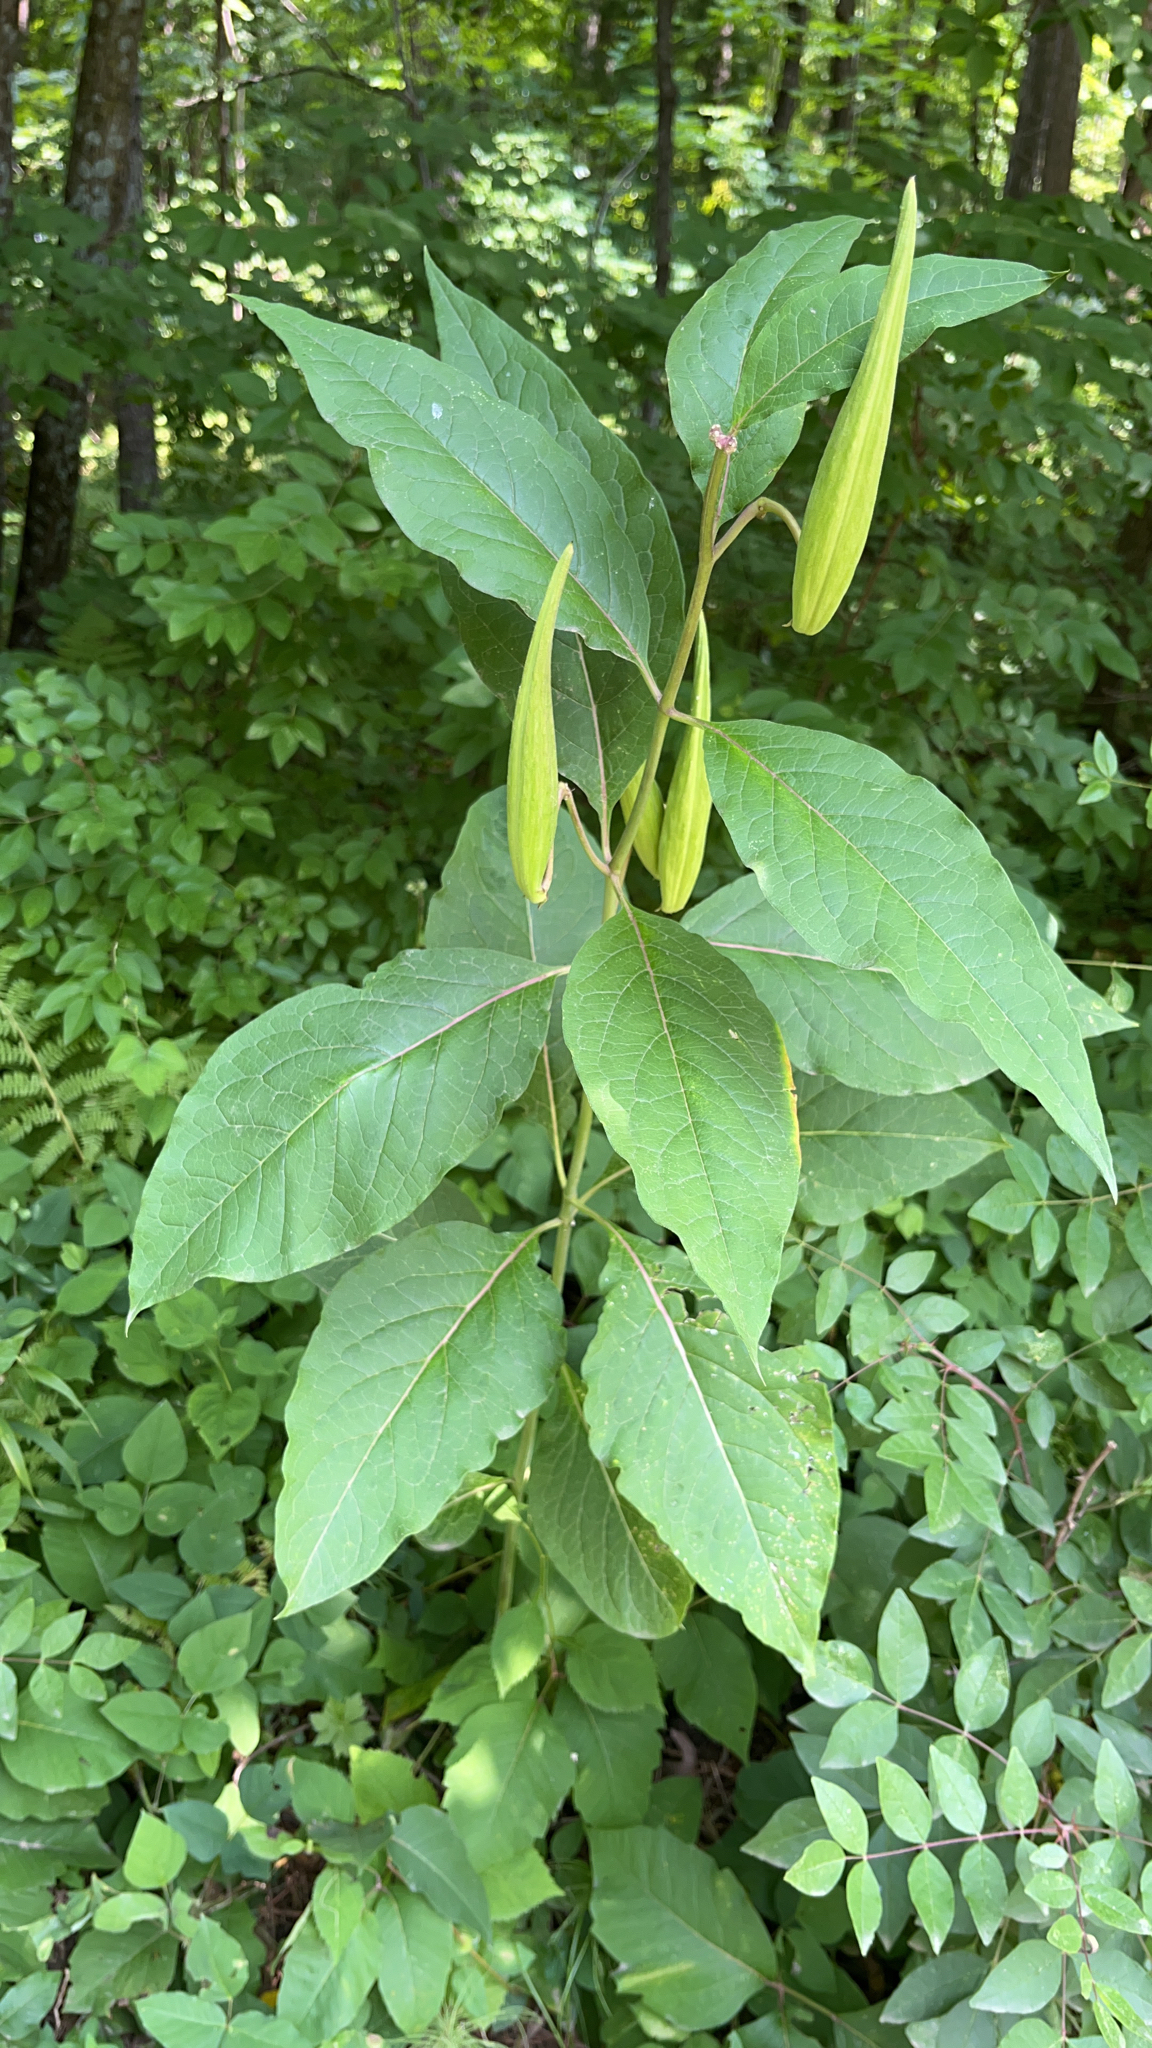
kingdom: Plantae
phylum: Tracheophyta
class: Magnoliopsida
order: Gentianales
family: Apocynaceae
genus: Asclepias
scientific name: Asclepias exaltata
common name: Poke milkweed
